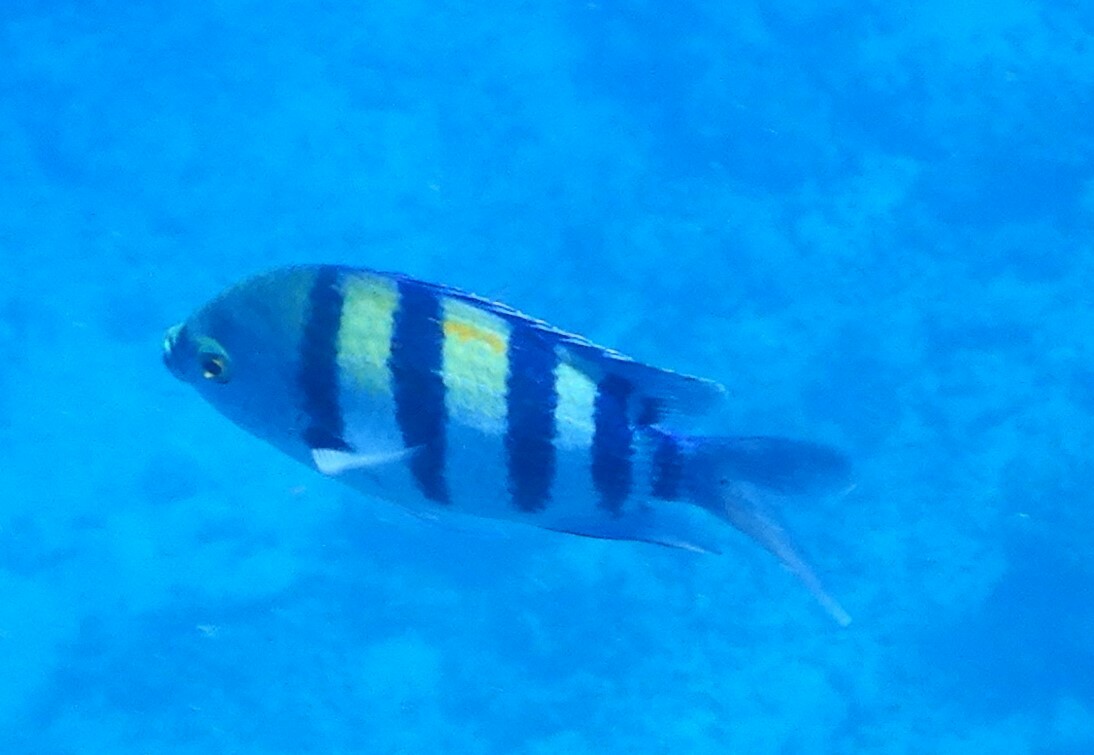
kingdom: Animalia
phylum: Chordata
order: Perciformes
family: Pomacentridae
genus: Abudefduf
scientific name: Abudefduf vaigiensis
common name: Indo-pacific sergeant
